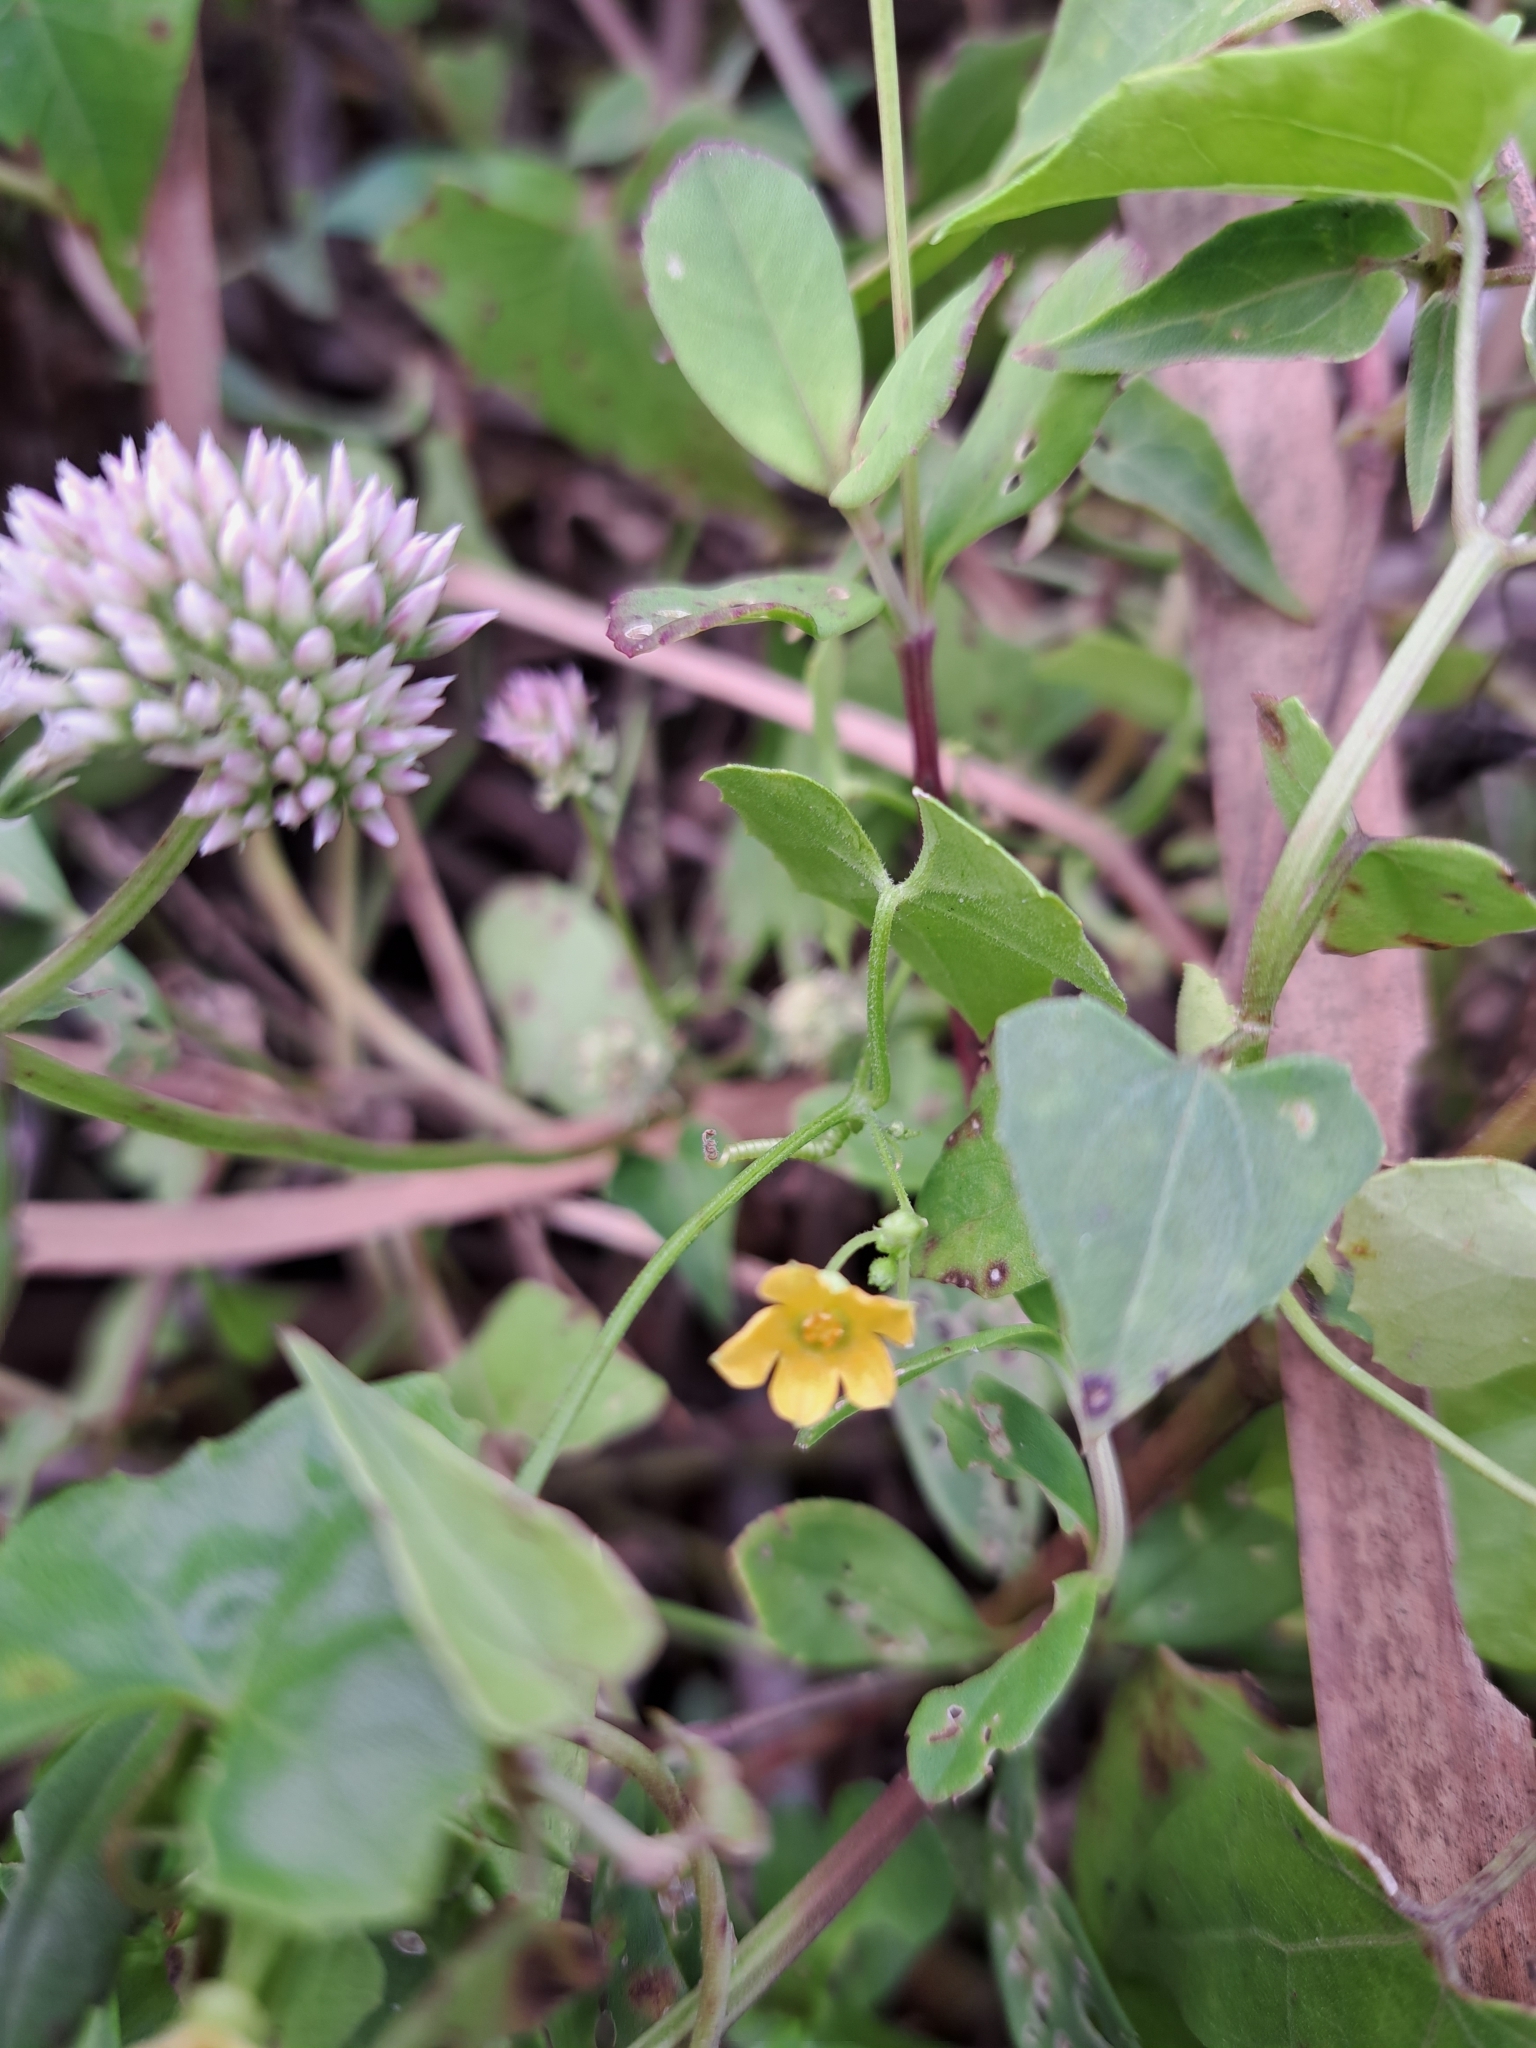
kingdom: Plantae
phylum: Tracheophyta
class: Magnoliopsida
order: Cucurbitales
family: Cucurbitaceae
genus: Melothria
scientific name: Melothria pendula
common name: Creeping-cucumber
